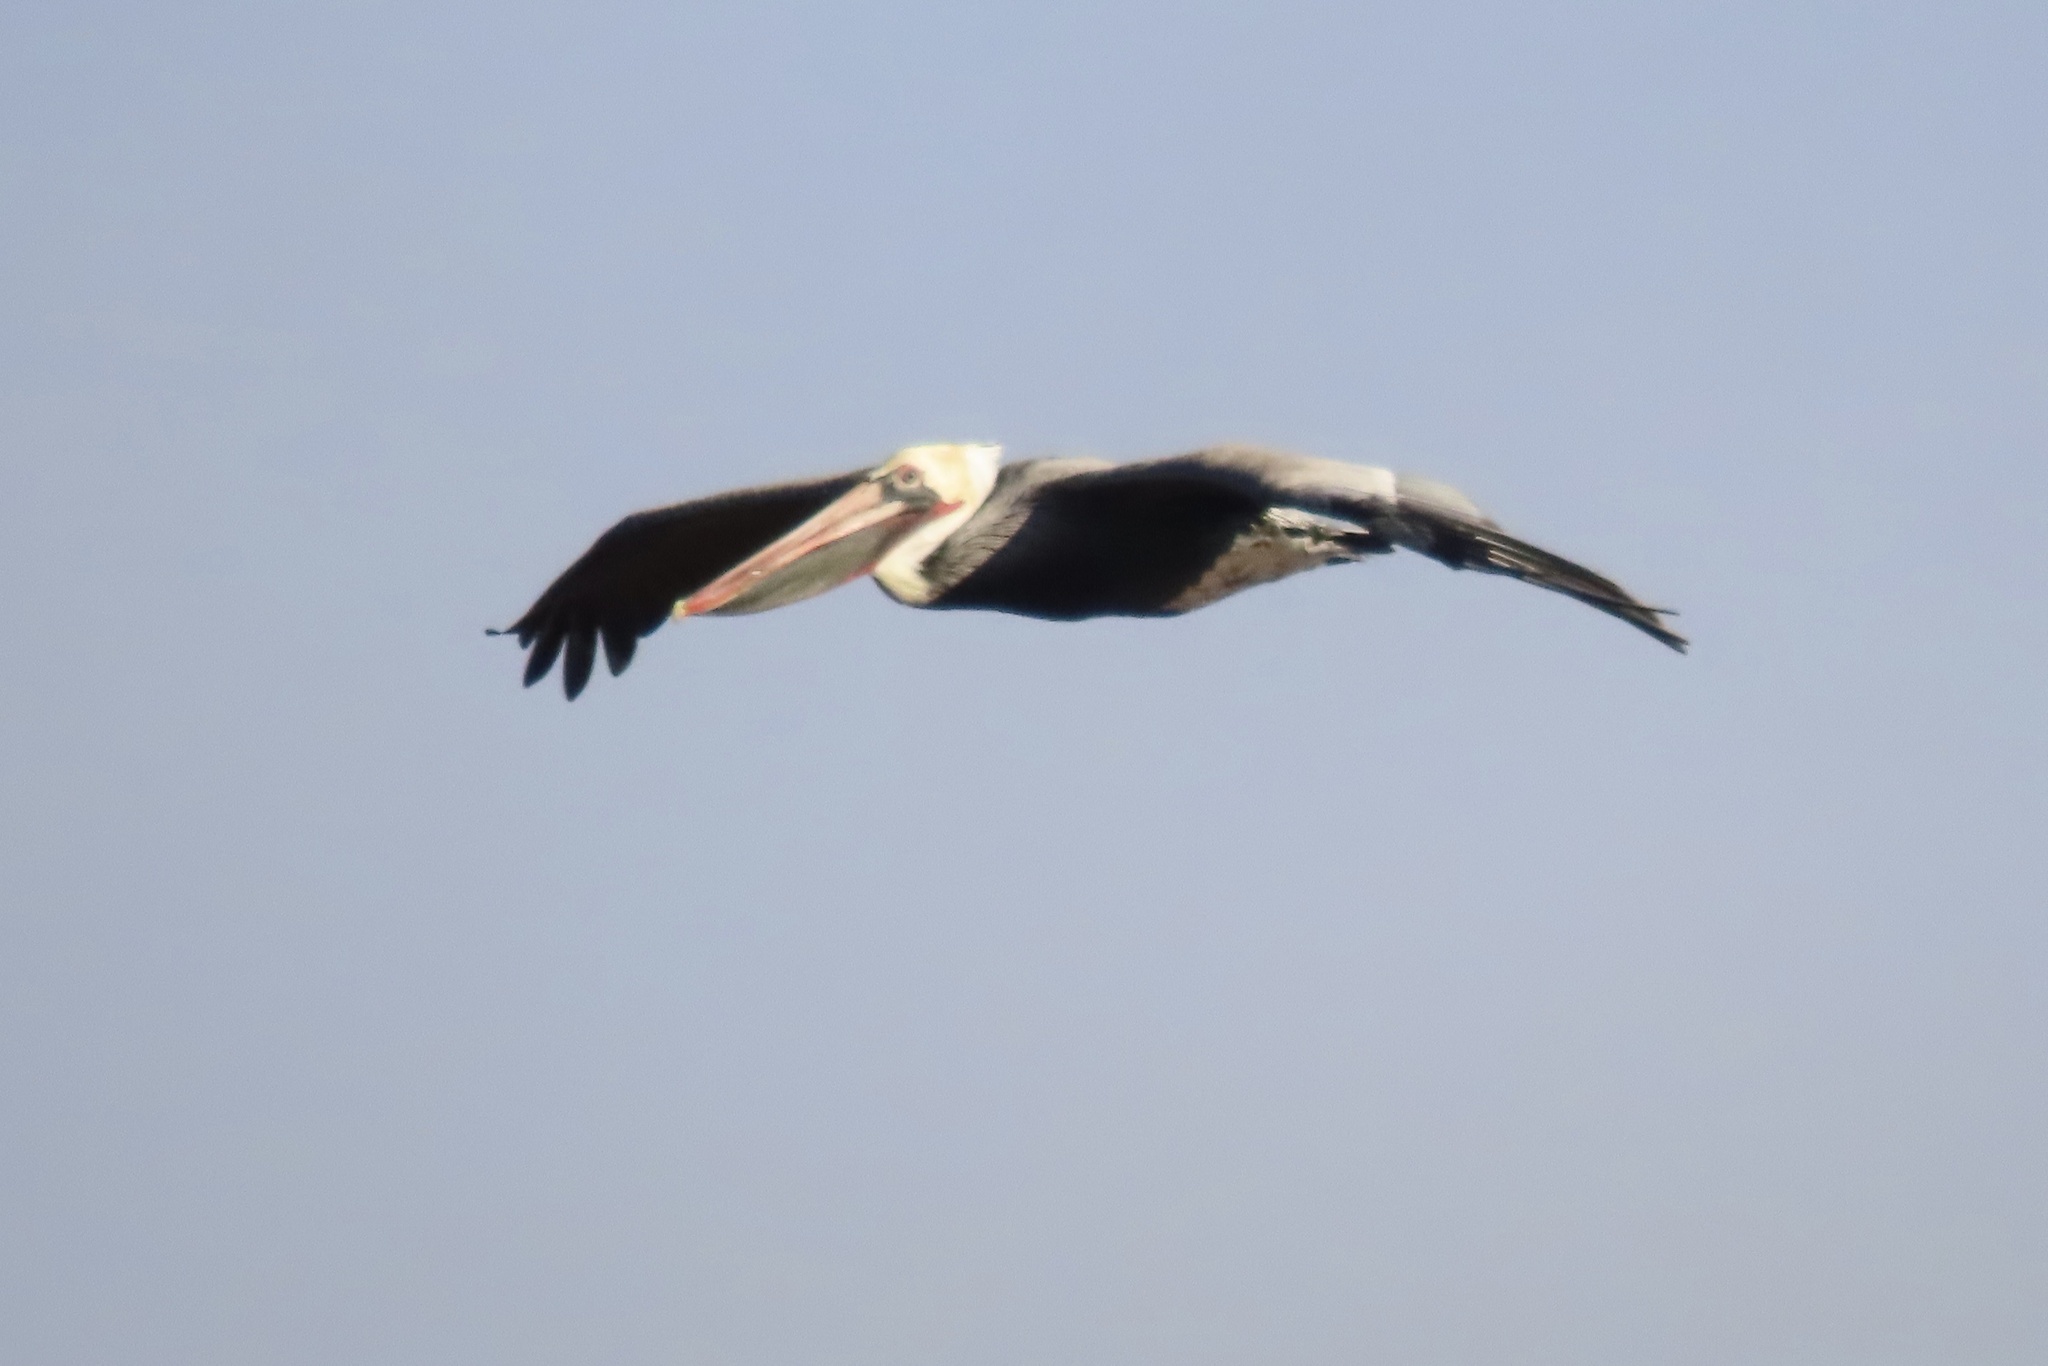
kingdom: Animalia
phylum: Chordata
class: Aves
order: Pelecaniformes
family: Pelecanidae
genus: Pelecanus
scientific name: Pelecanus occidentalis
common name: Brown pelican
